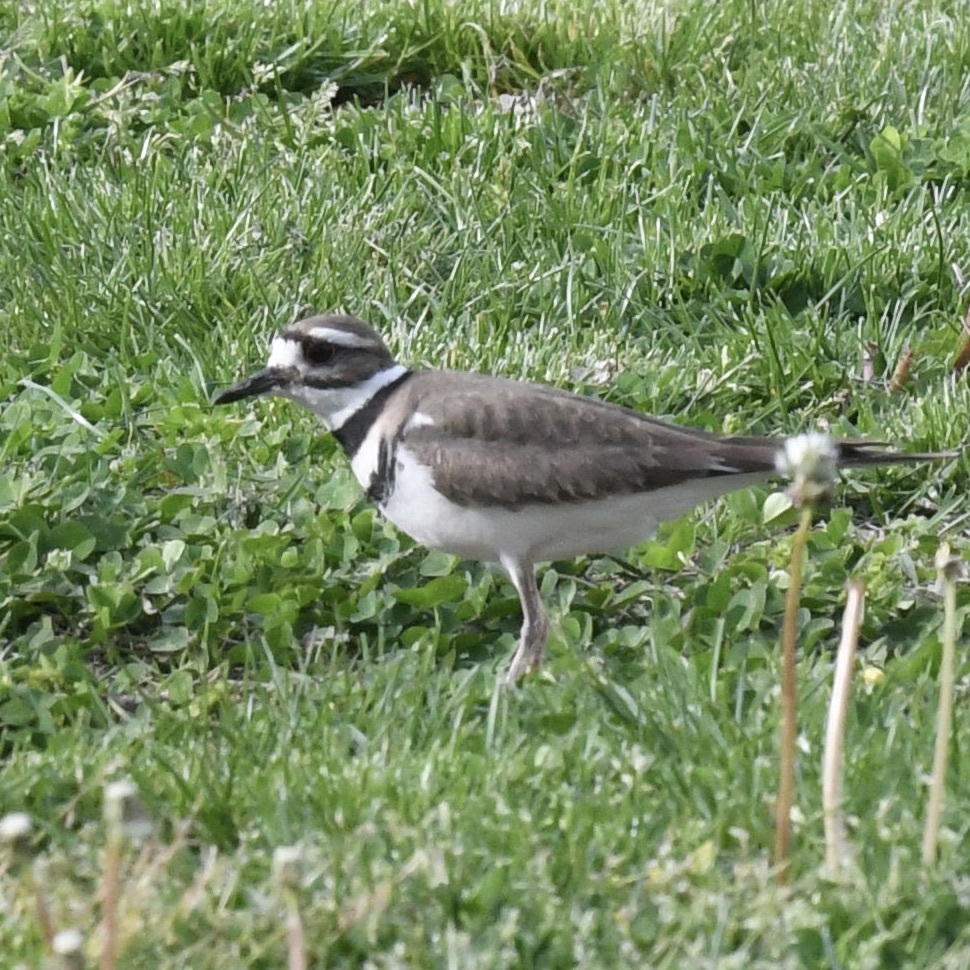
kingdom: Animalia
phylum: Chordata
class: Aves
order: Charadriiformes
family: Charadriidae
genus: Charadrius
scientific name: Charadrius vociferus
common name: Killdeer
